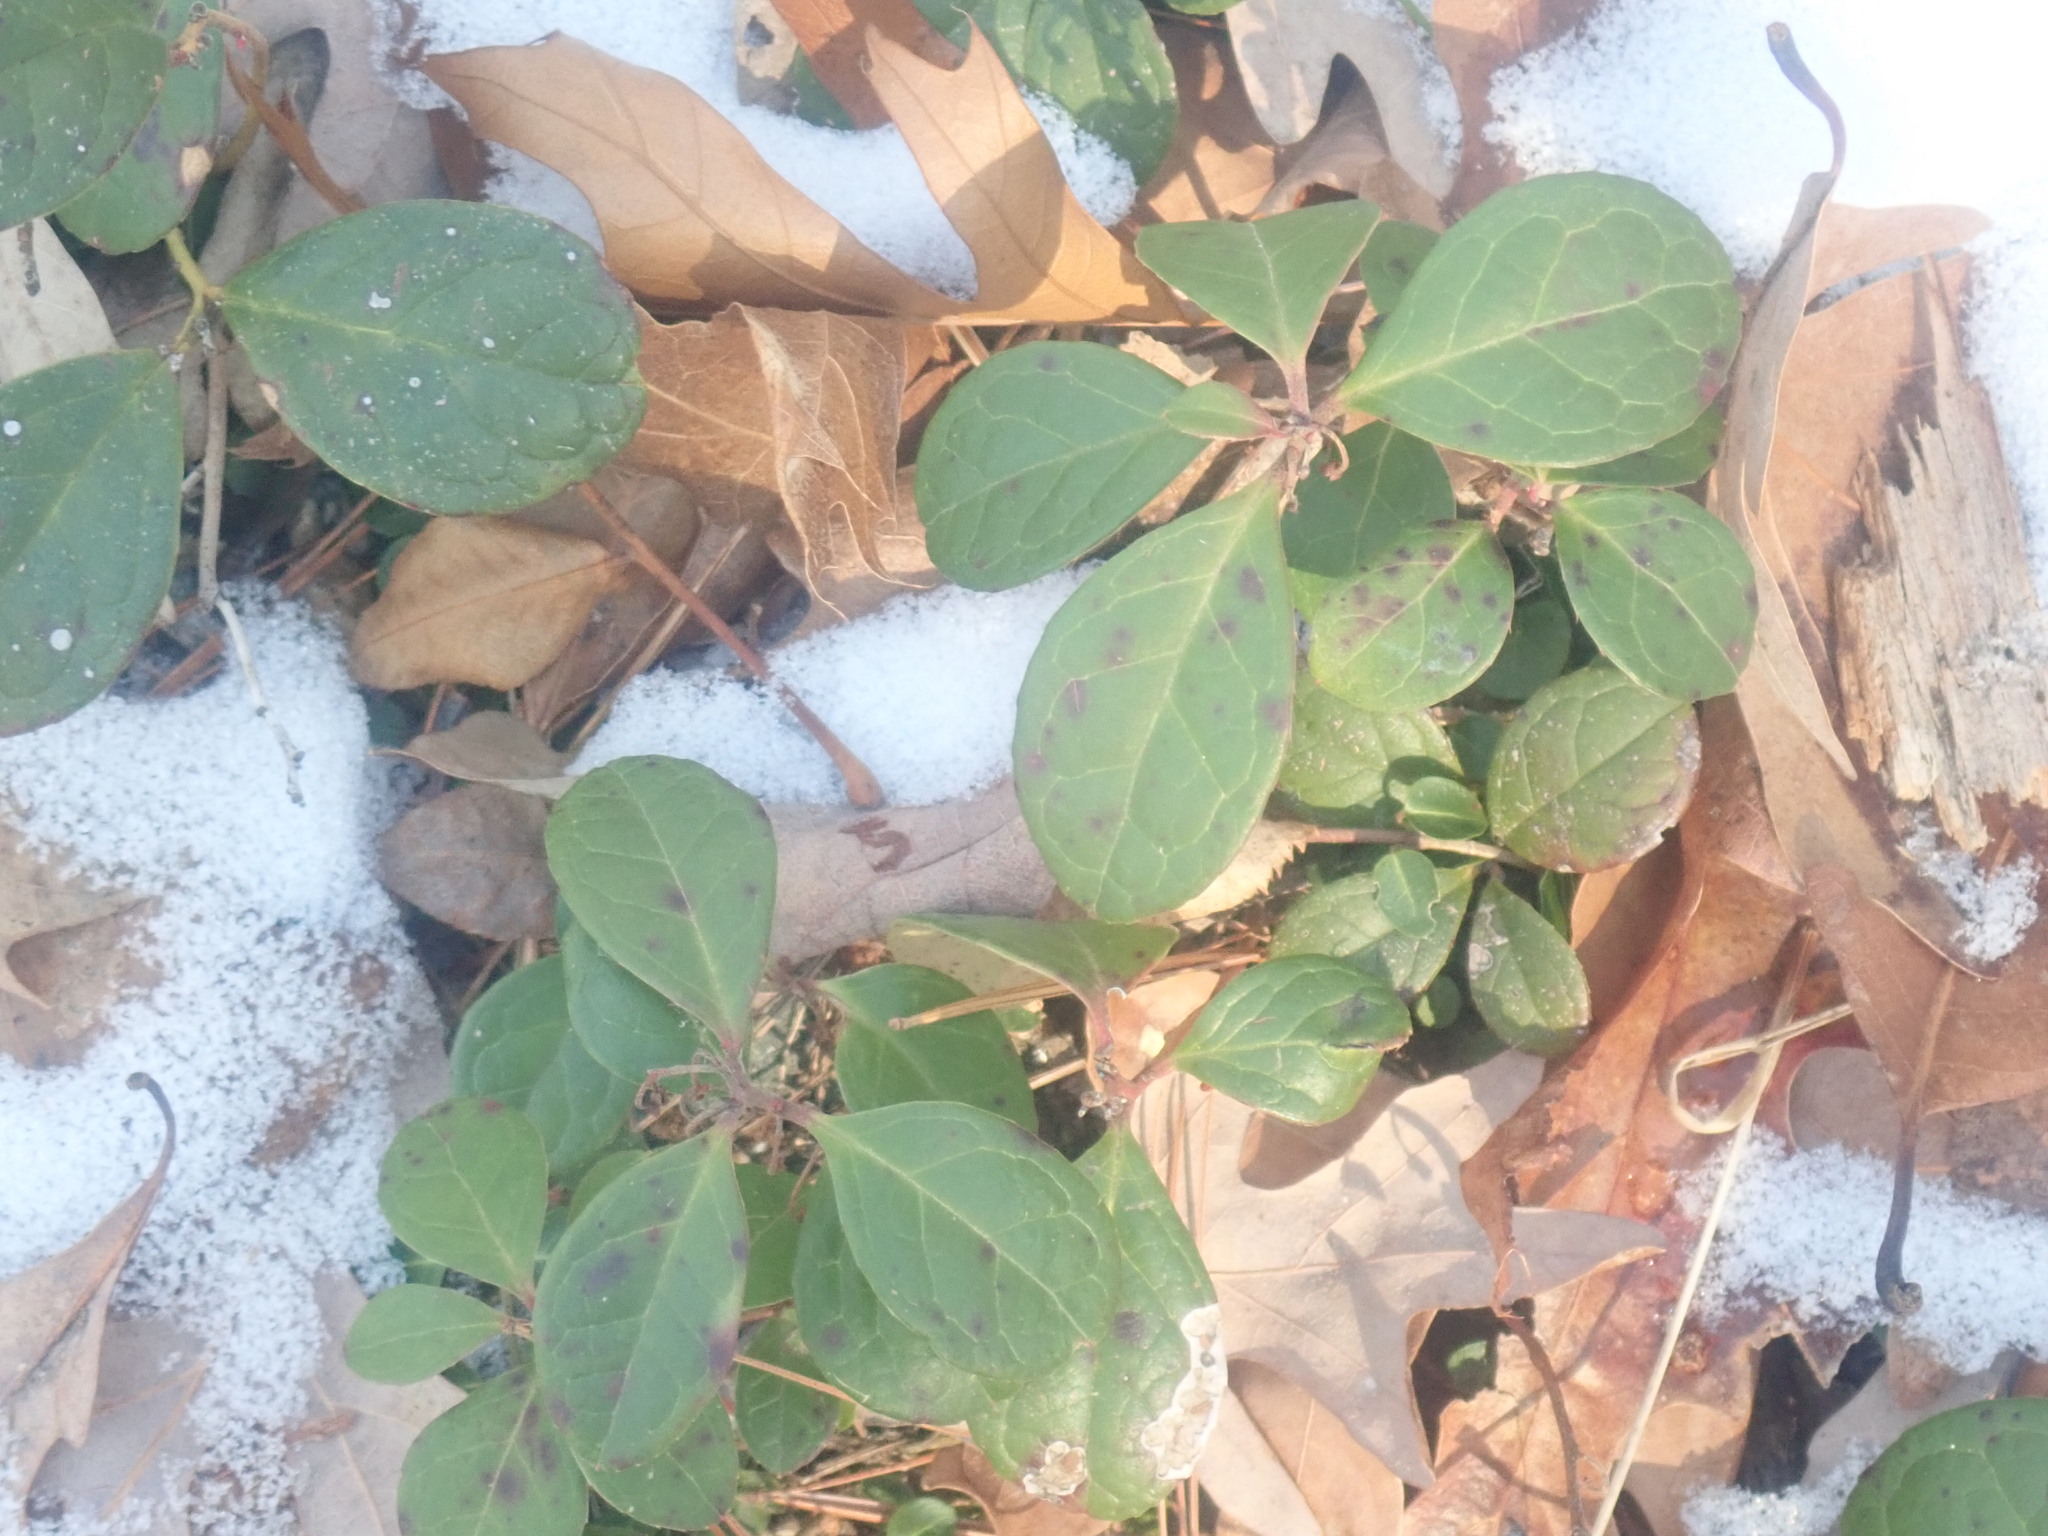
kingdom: Plantae
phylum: Tracheophyta
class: Magnoliopsida
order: Ericales
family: Ericaceae
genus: Gaultheria
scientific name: Gaultheria procumbens
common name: Checkerberry
